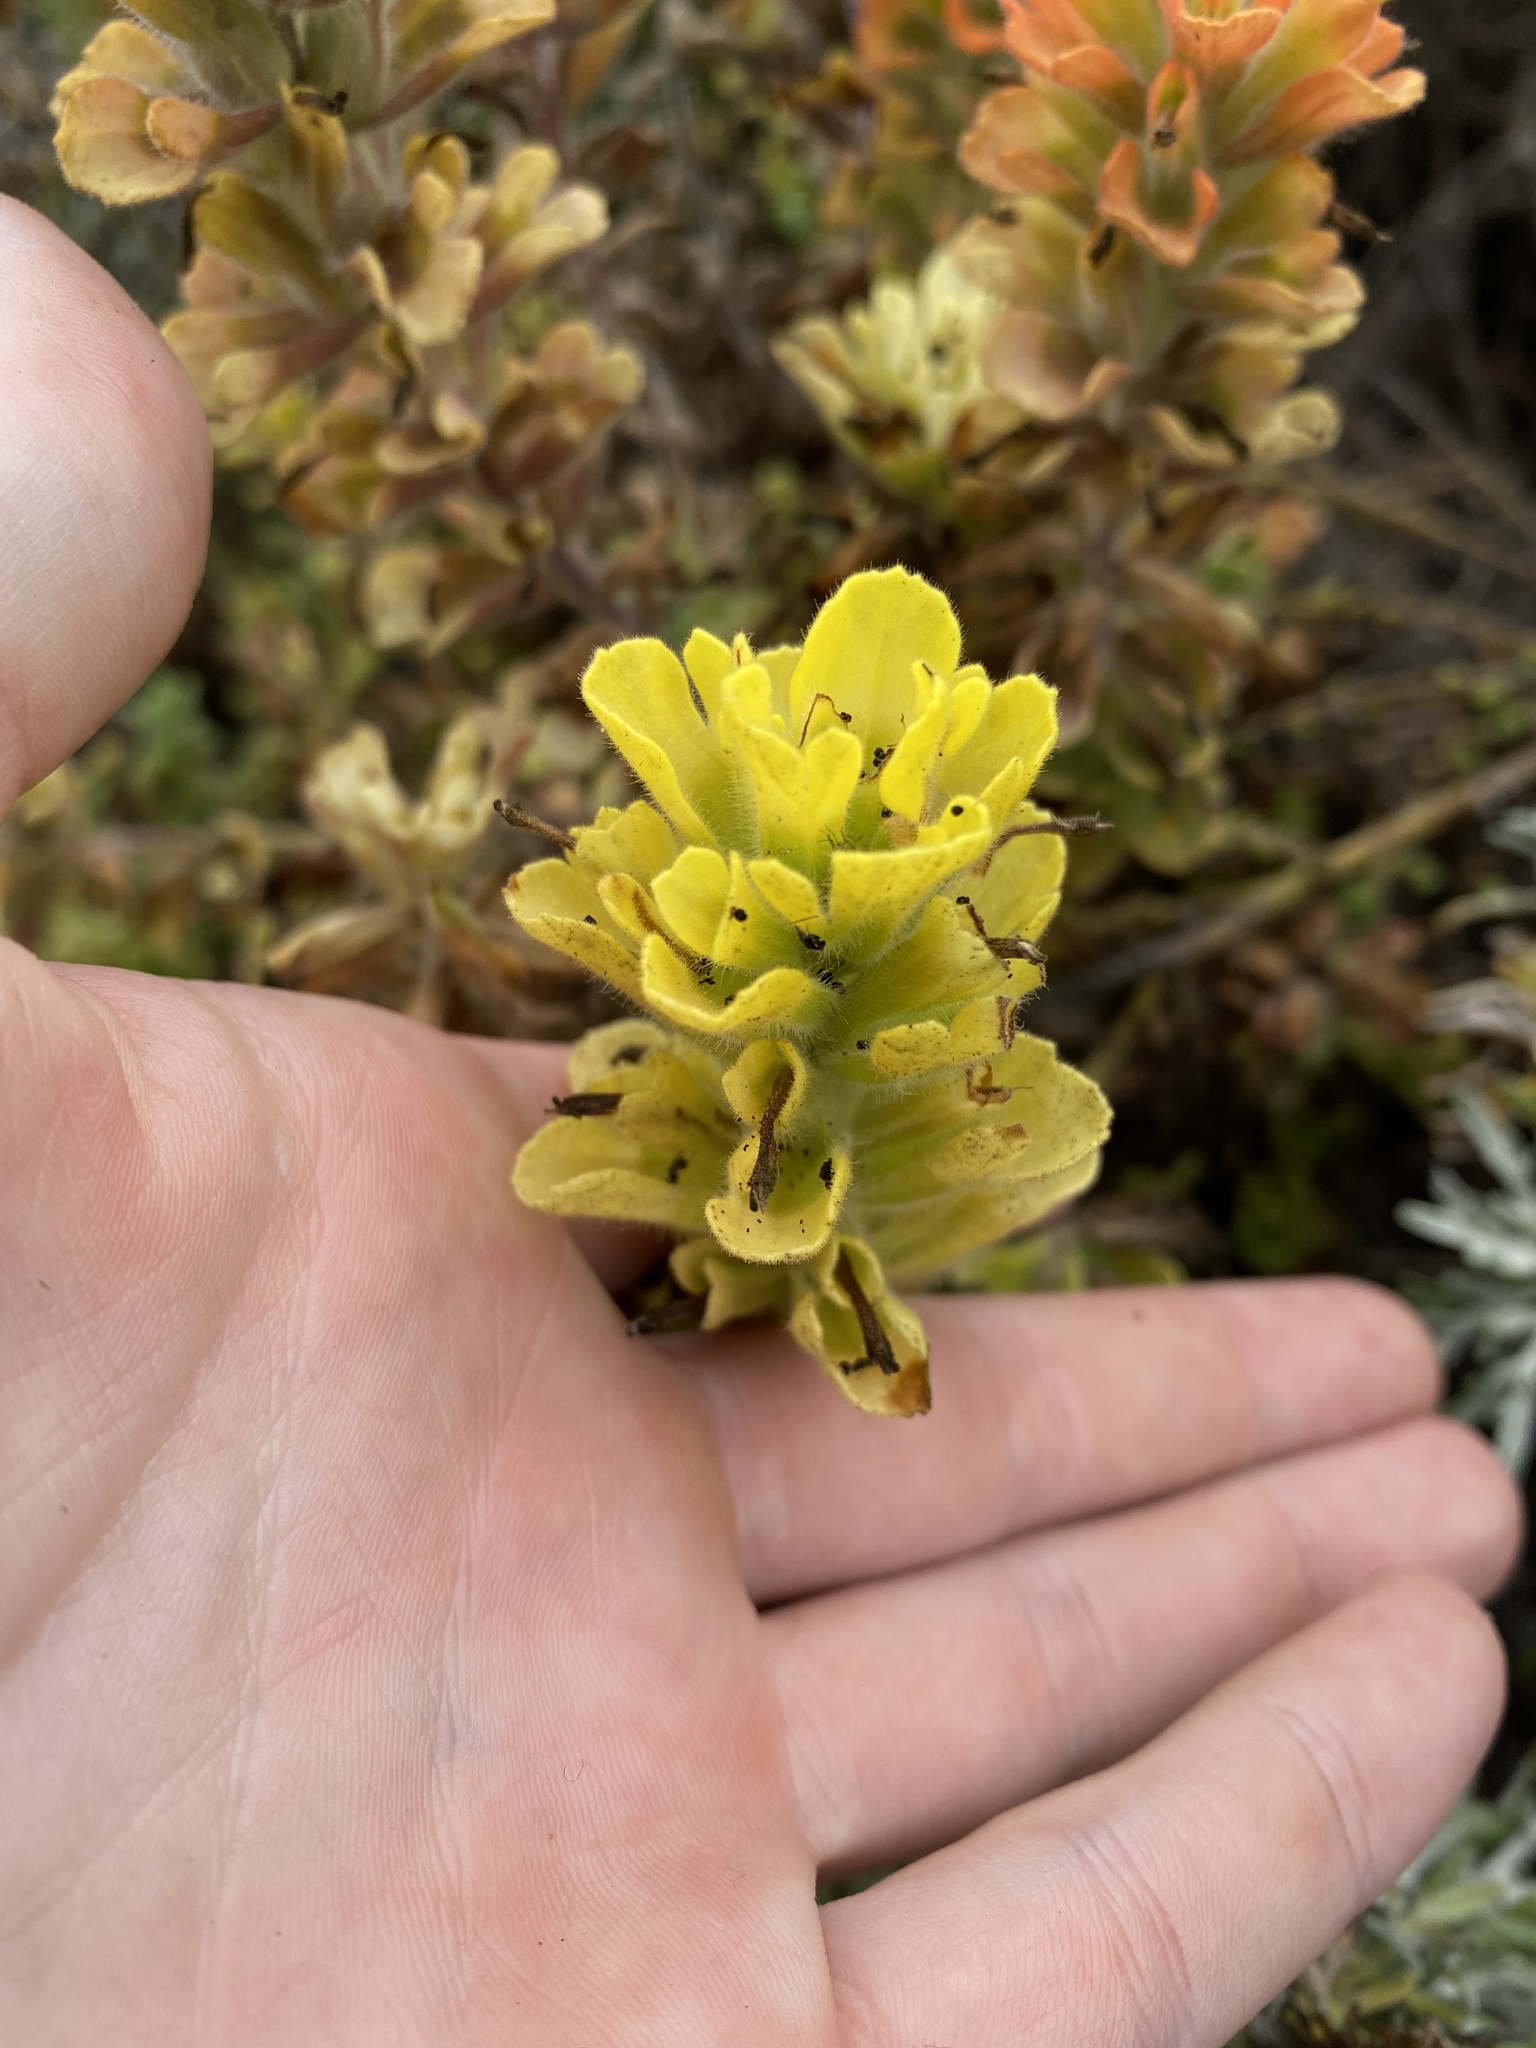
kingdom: Plantae
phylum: Tracheophyta
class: Magnoliopsida
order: Lamiales
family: Orobanchaceae
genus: Castilleja
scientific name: Castilleja latifolia
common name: Monterey indian paintbrush
